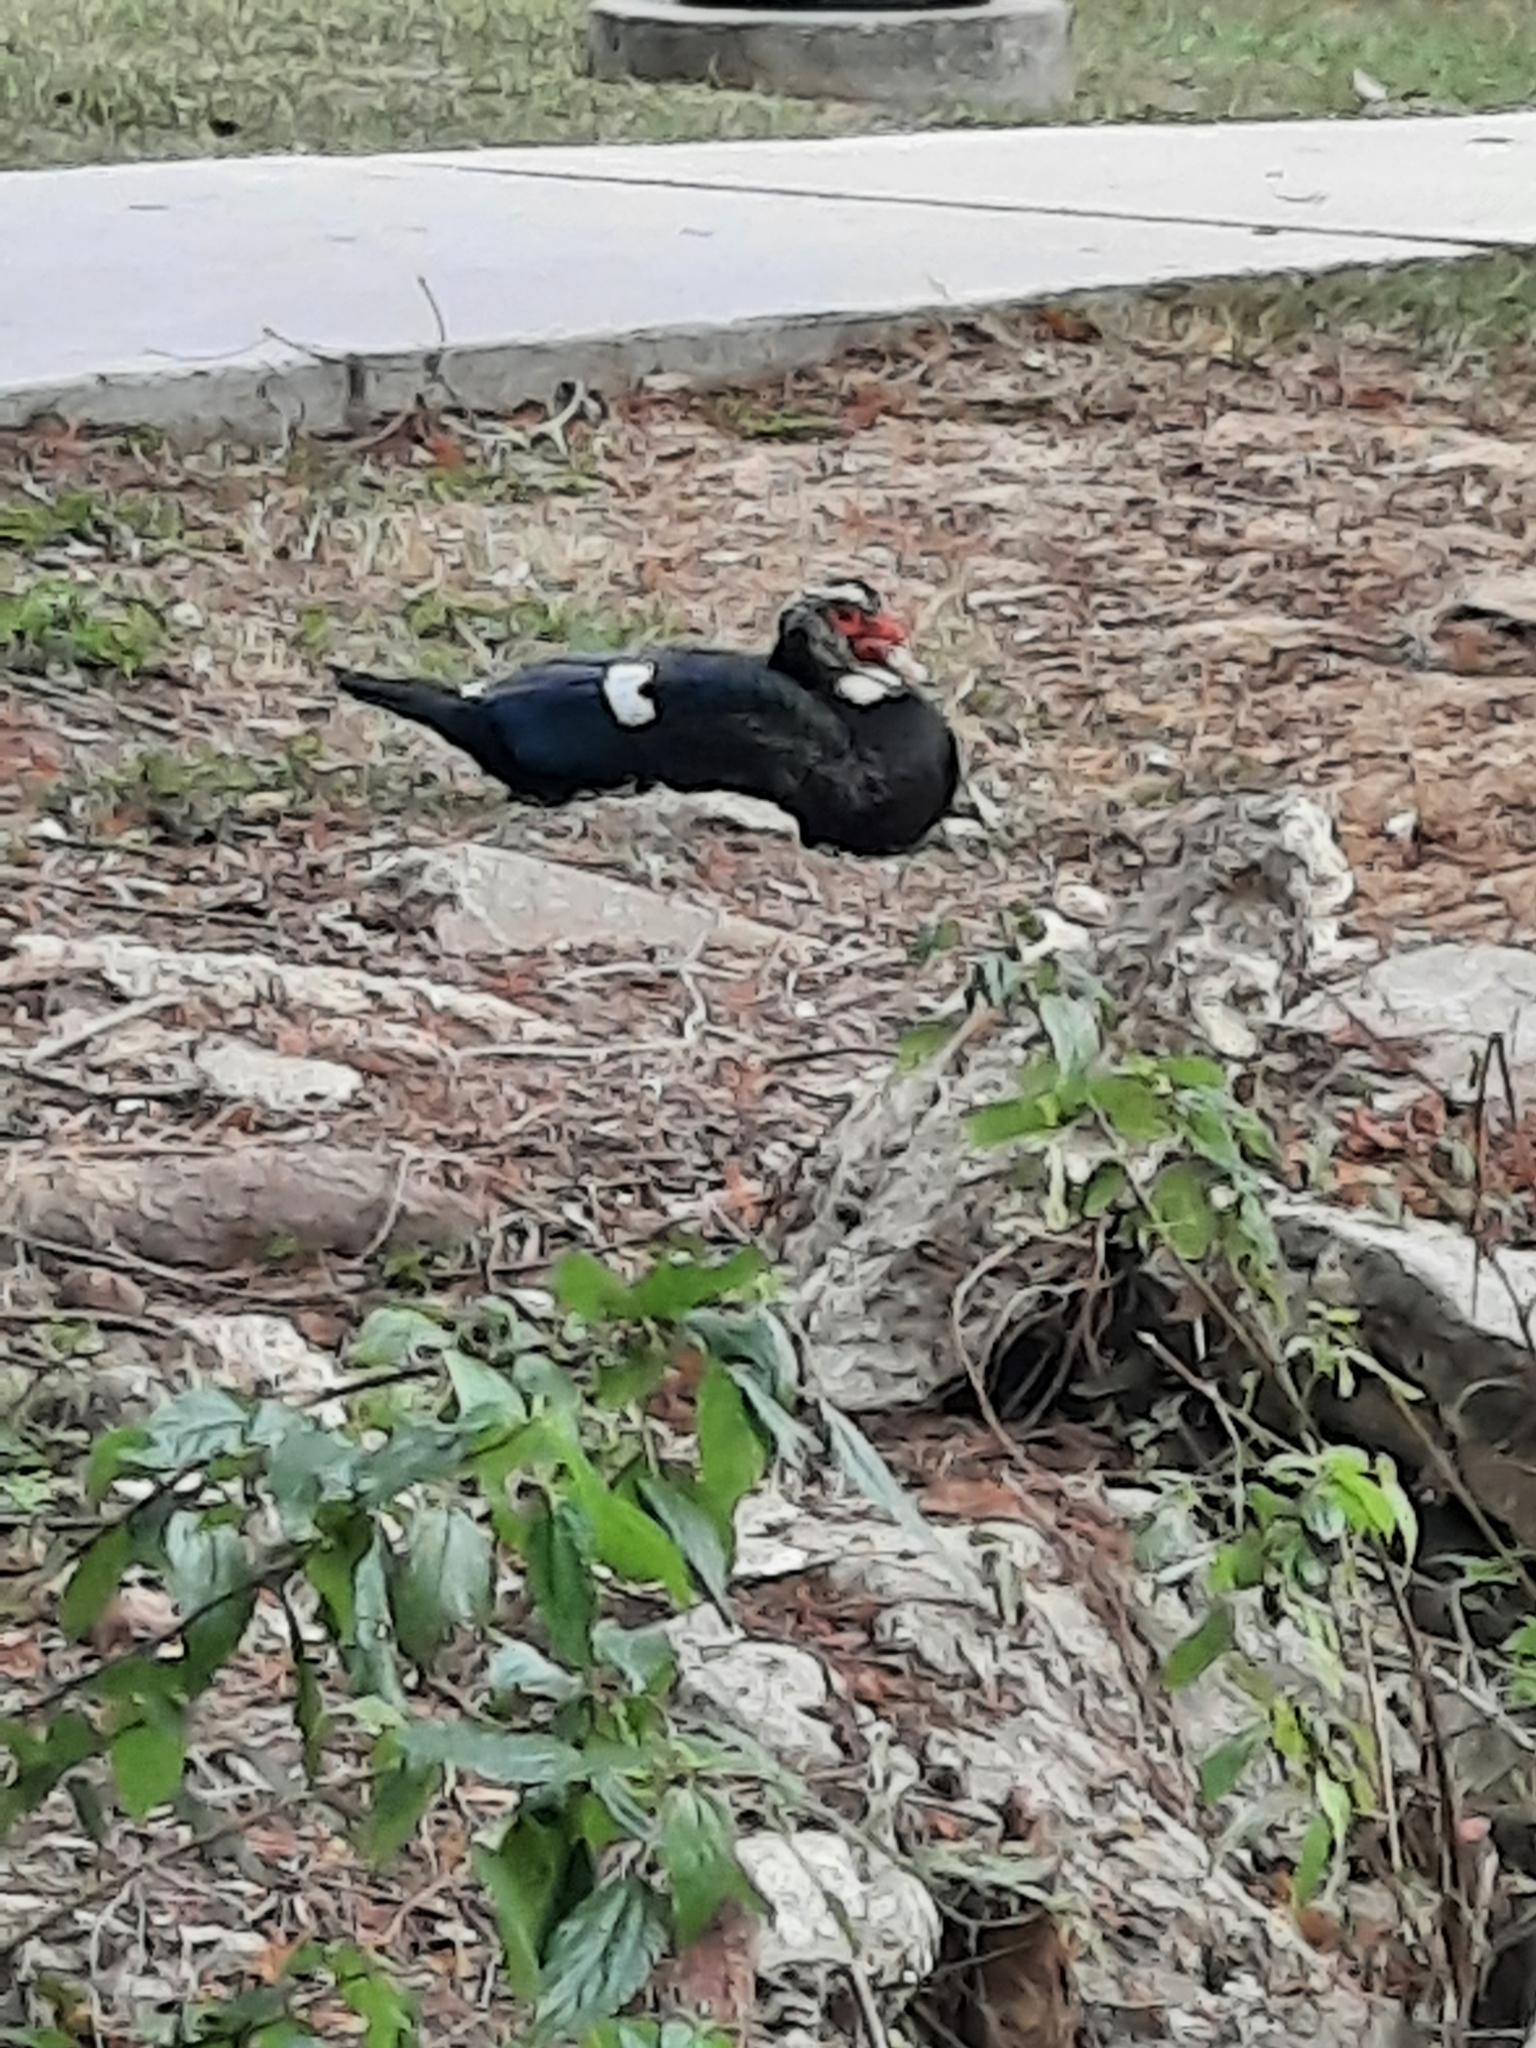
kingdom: Animalia
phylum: Chordata
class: Aves
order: Anseriformes
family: Anatidae
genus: Cairina
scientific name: Cairina moschata
